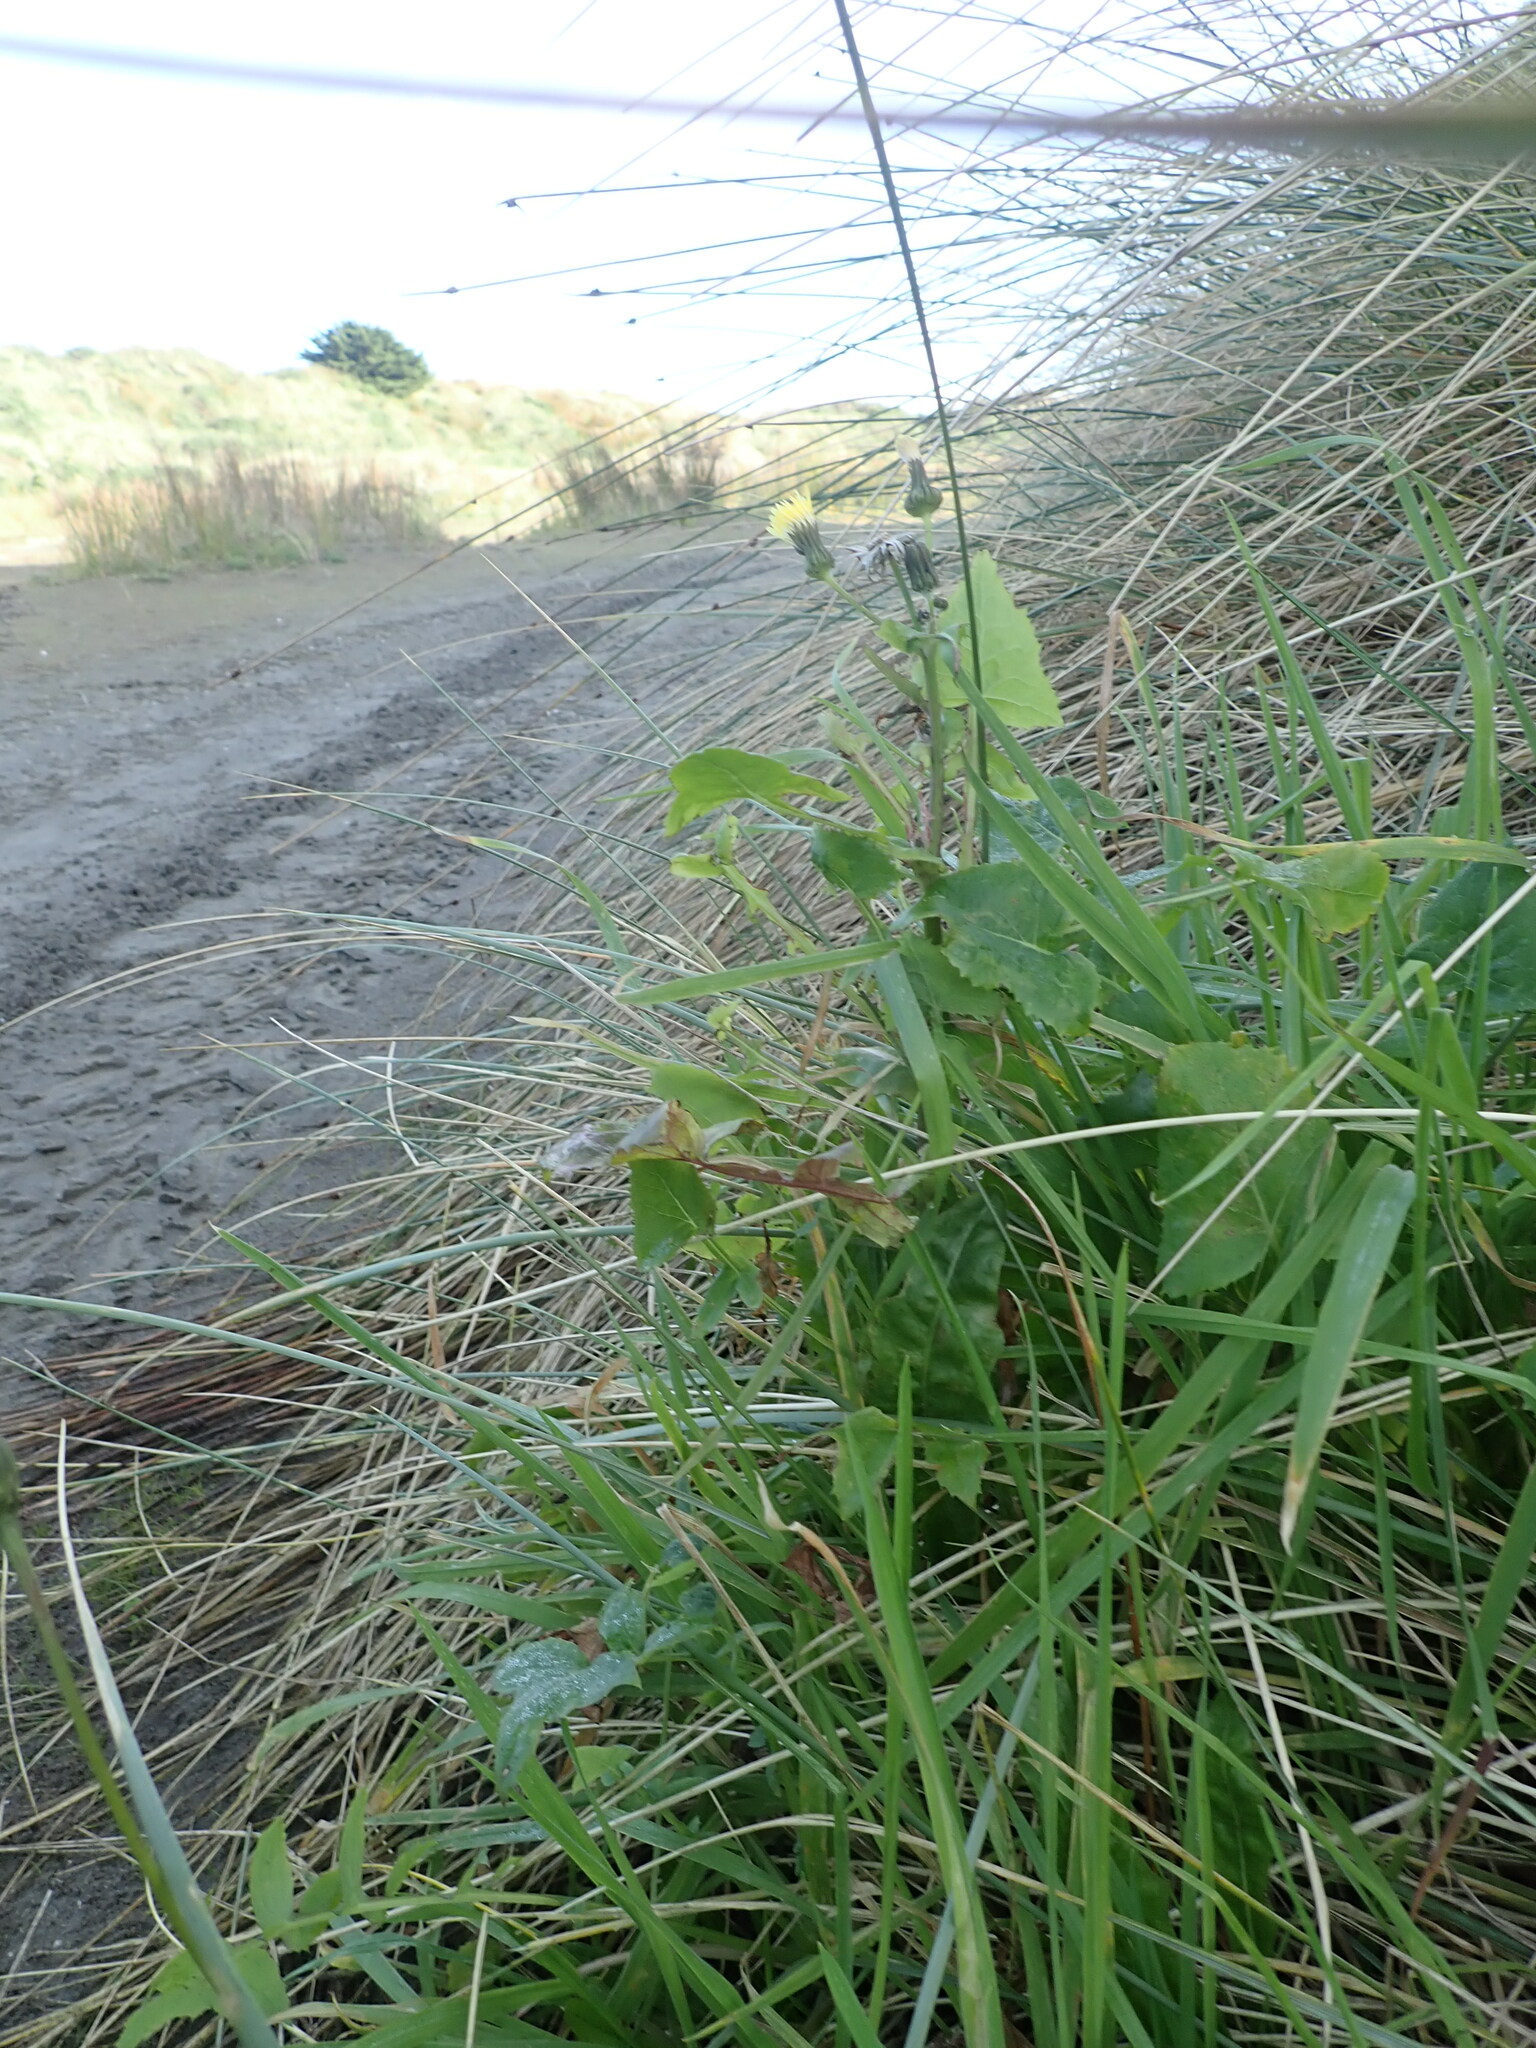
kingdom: Plantae
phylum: Tracheophyta
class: Magnoliopsida
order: Asterales
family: Asteraceae
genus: Sonchus
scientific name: Sonchus oleraceus
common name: Common sowthistle
